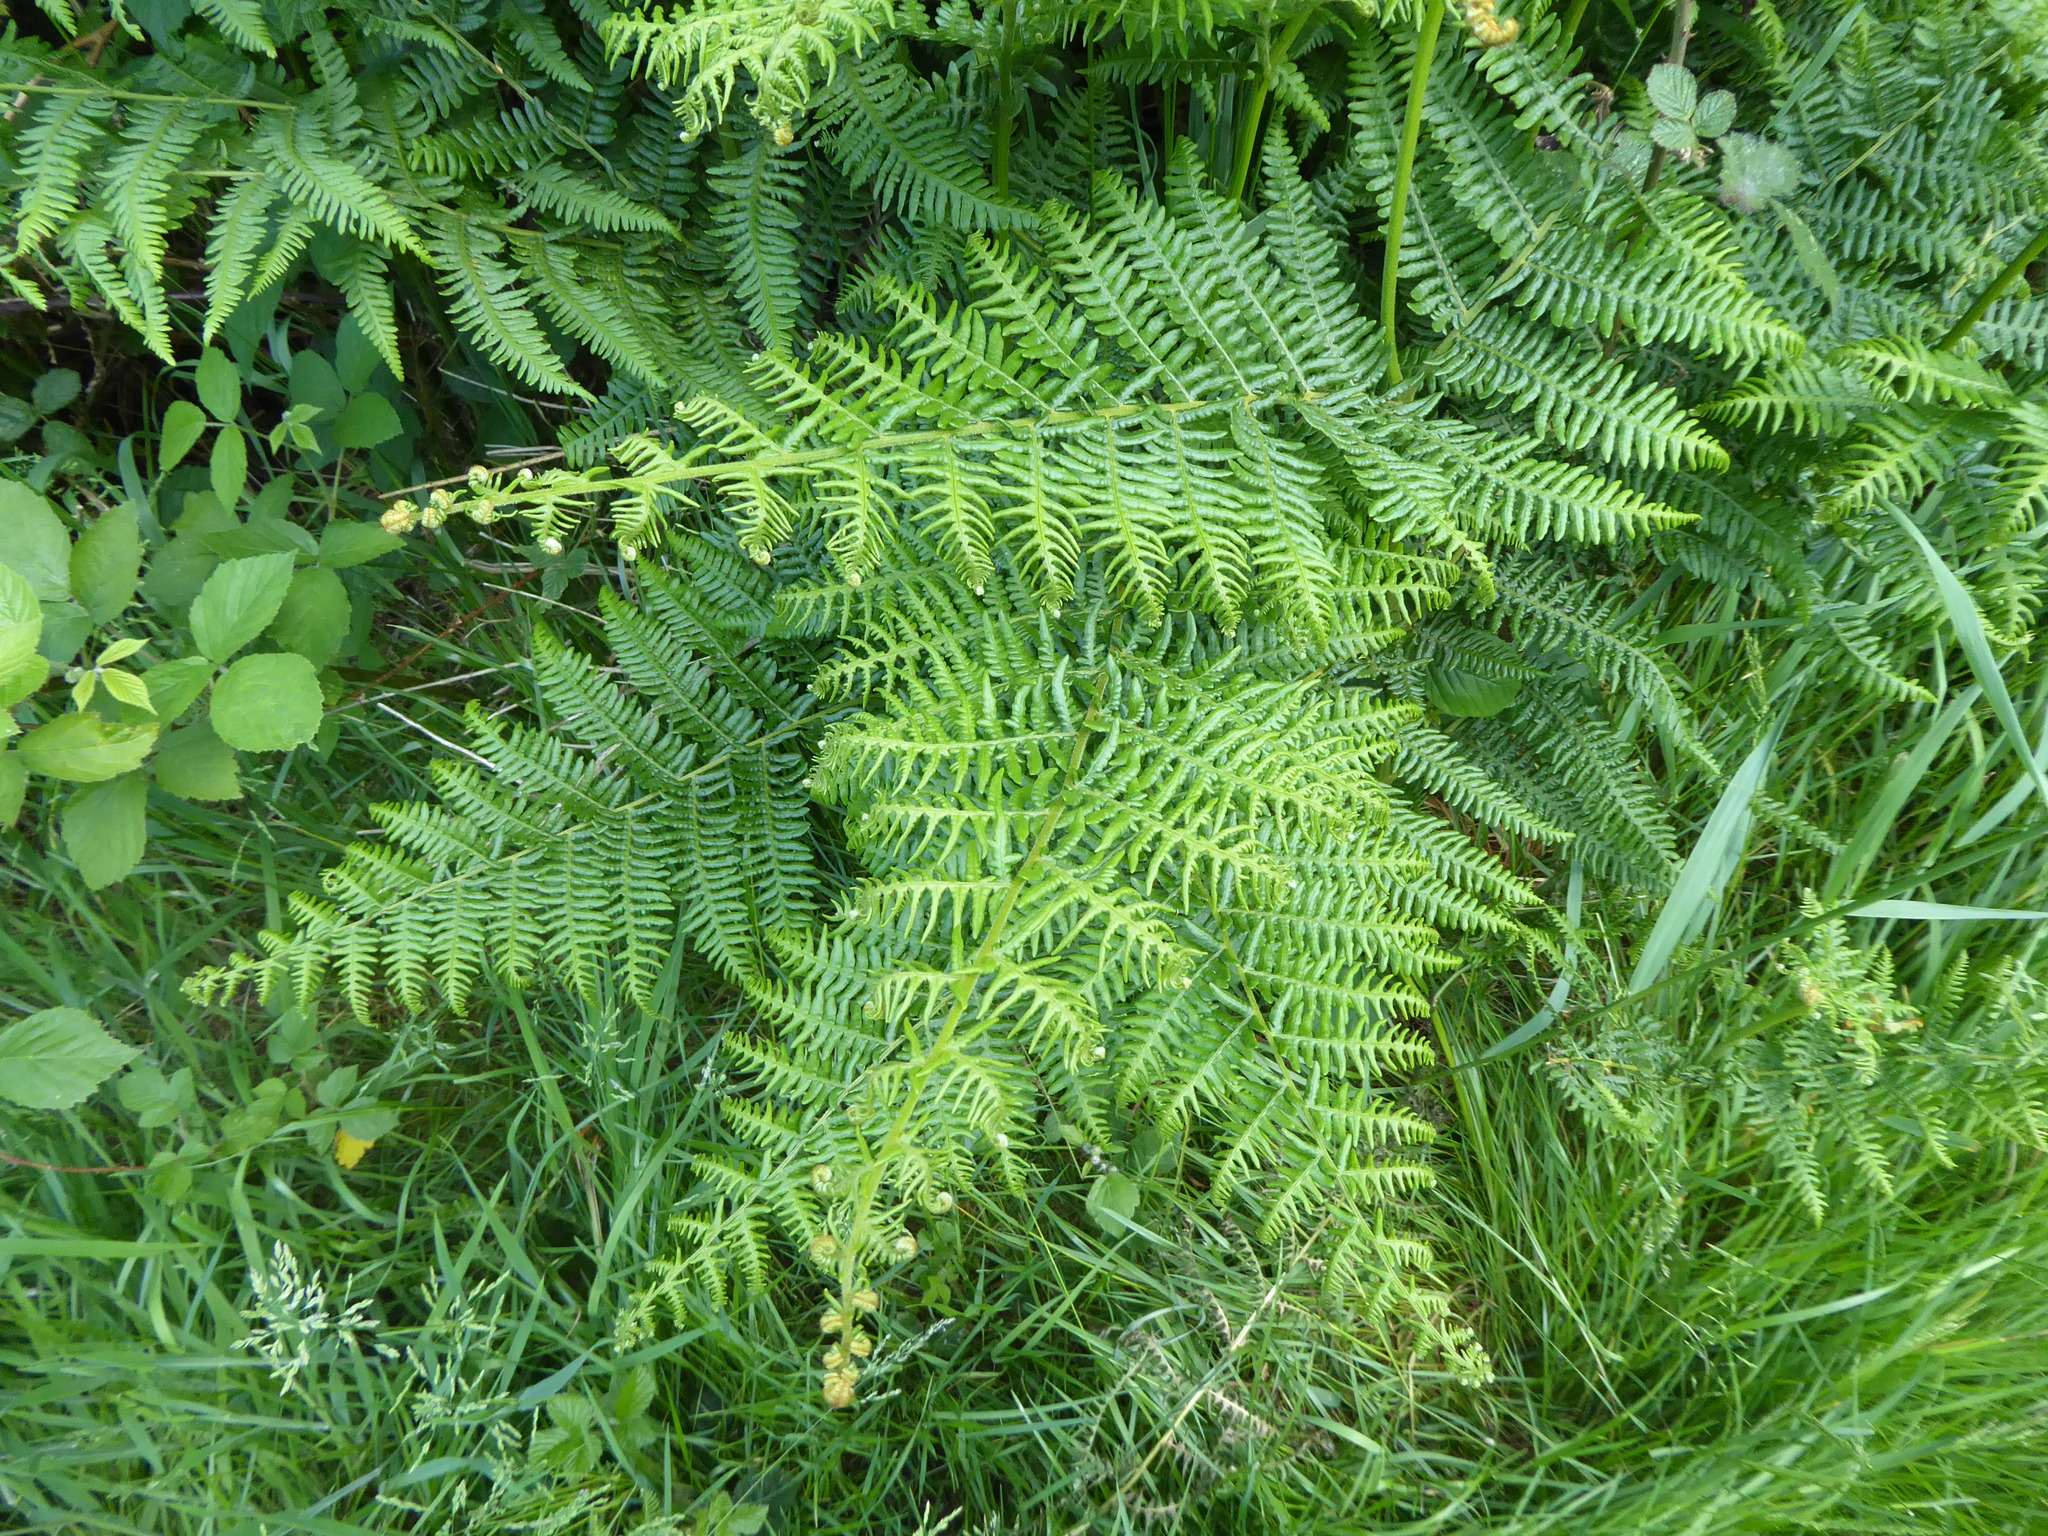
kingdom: Plantae
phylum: Tracheophyta
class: Polypodiopsida
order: Polypodiales
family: Dennstaedtiaceae
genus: Pteridium
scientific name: Pteridium aquilinum
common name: Bracken
